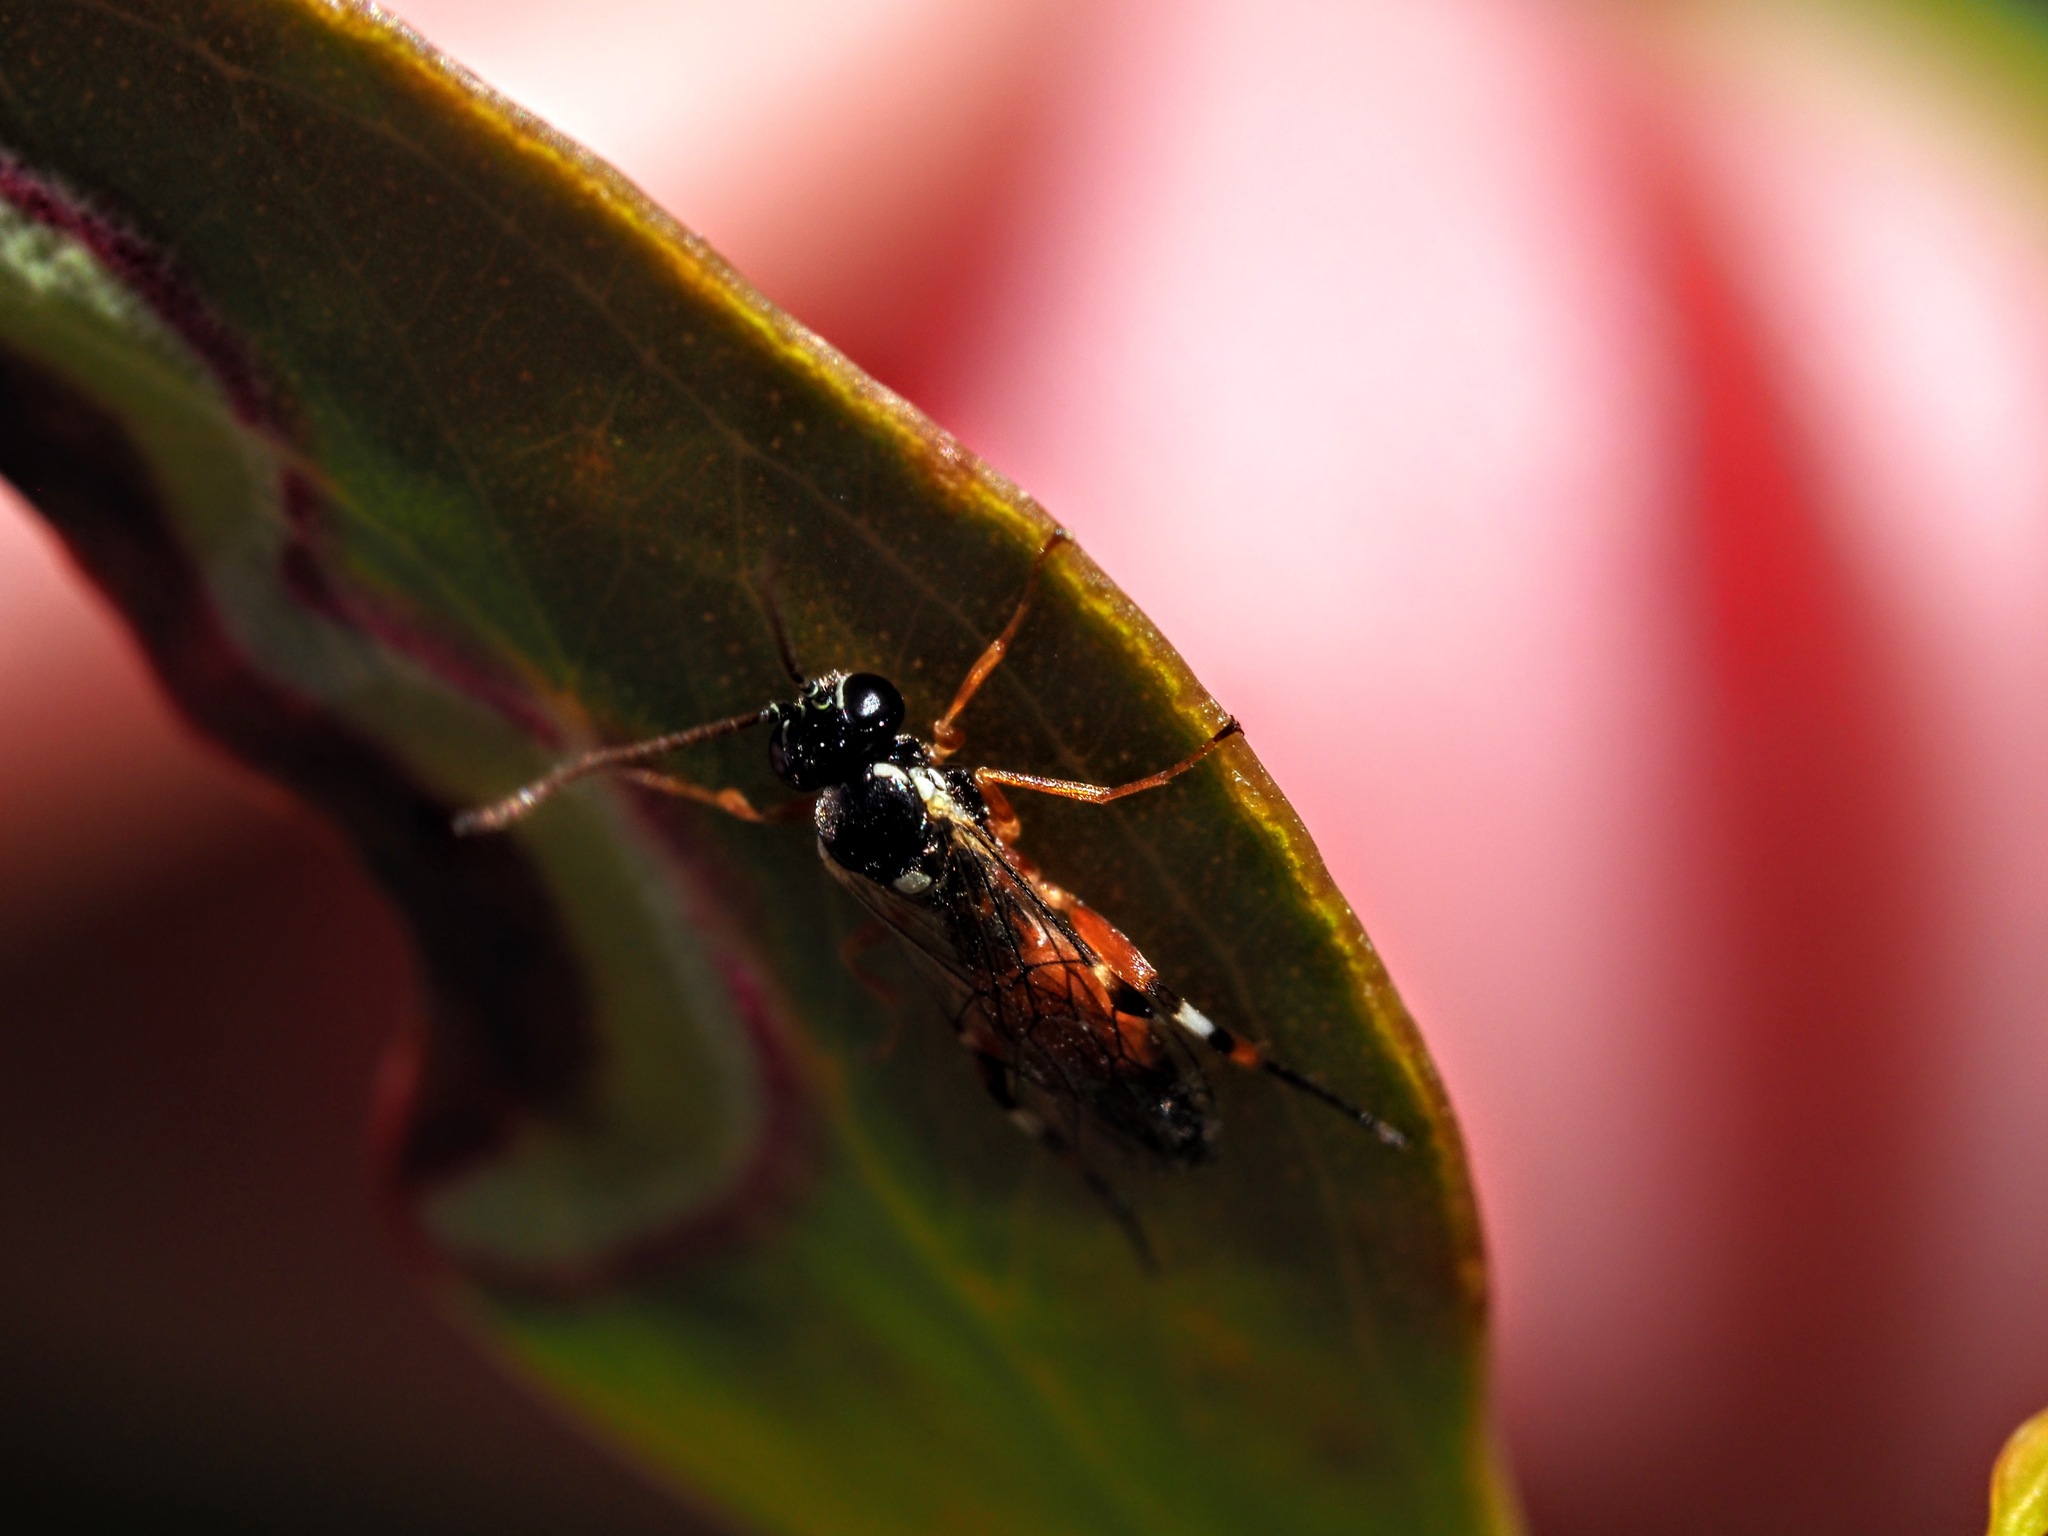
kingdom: Animalia
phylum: Arthropoda
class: Insecta
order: Hymenoptera
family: Ichneumonidae
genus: Diplazon
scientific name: Diplazon laetatorius
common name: Parasitoid wasp
